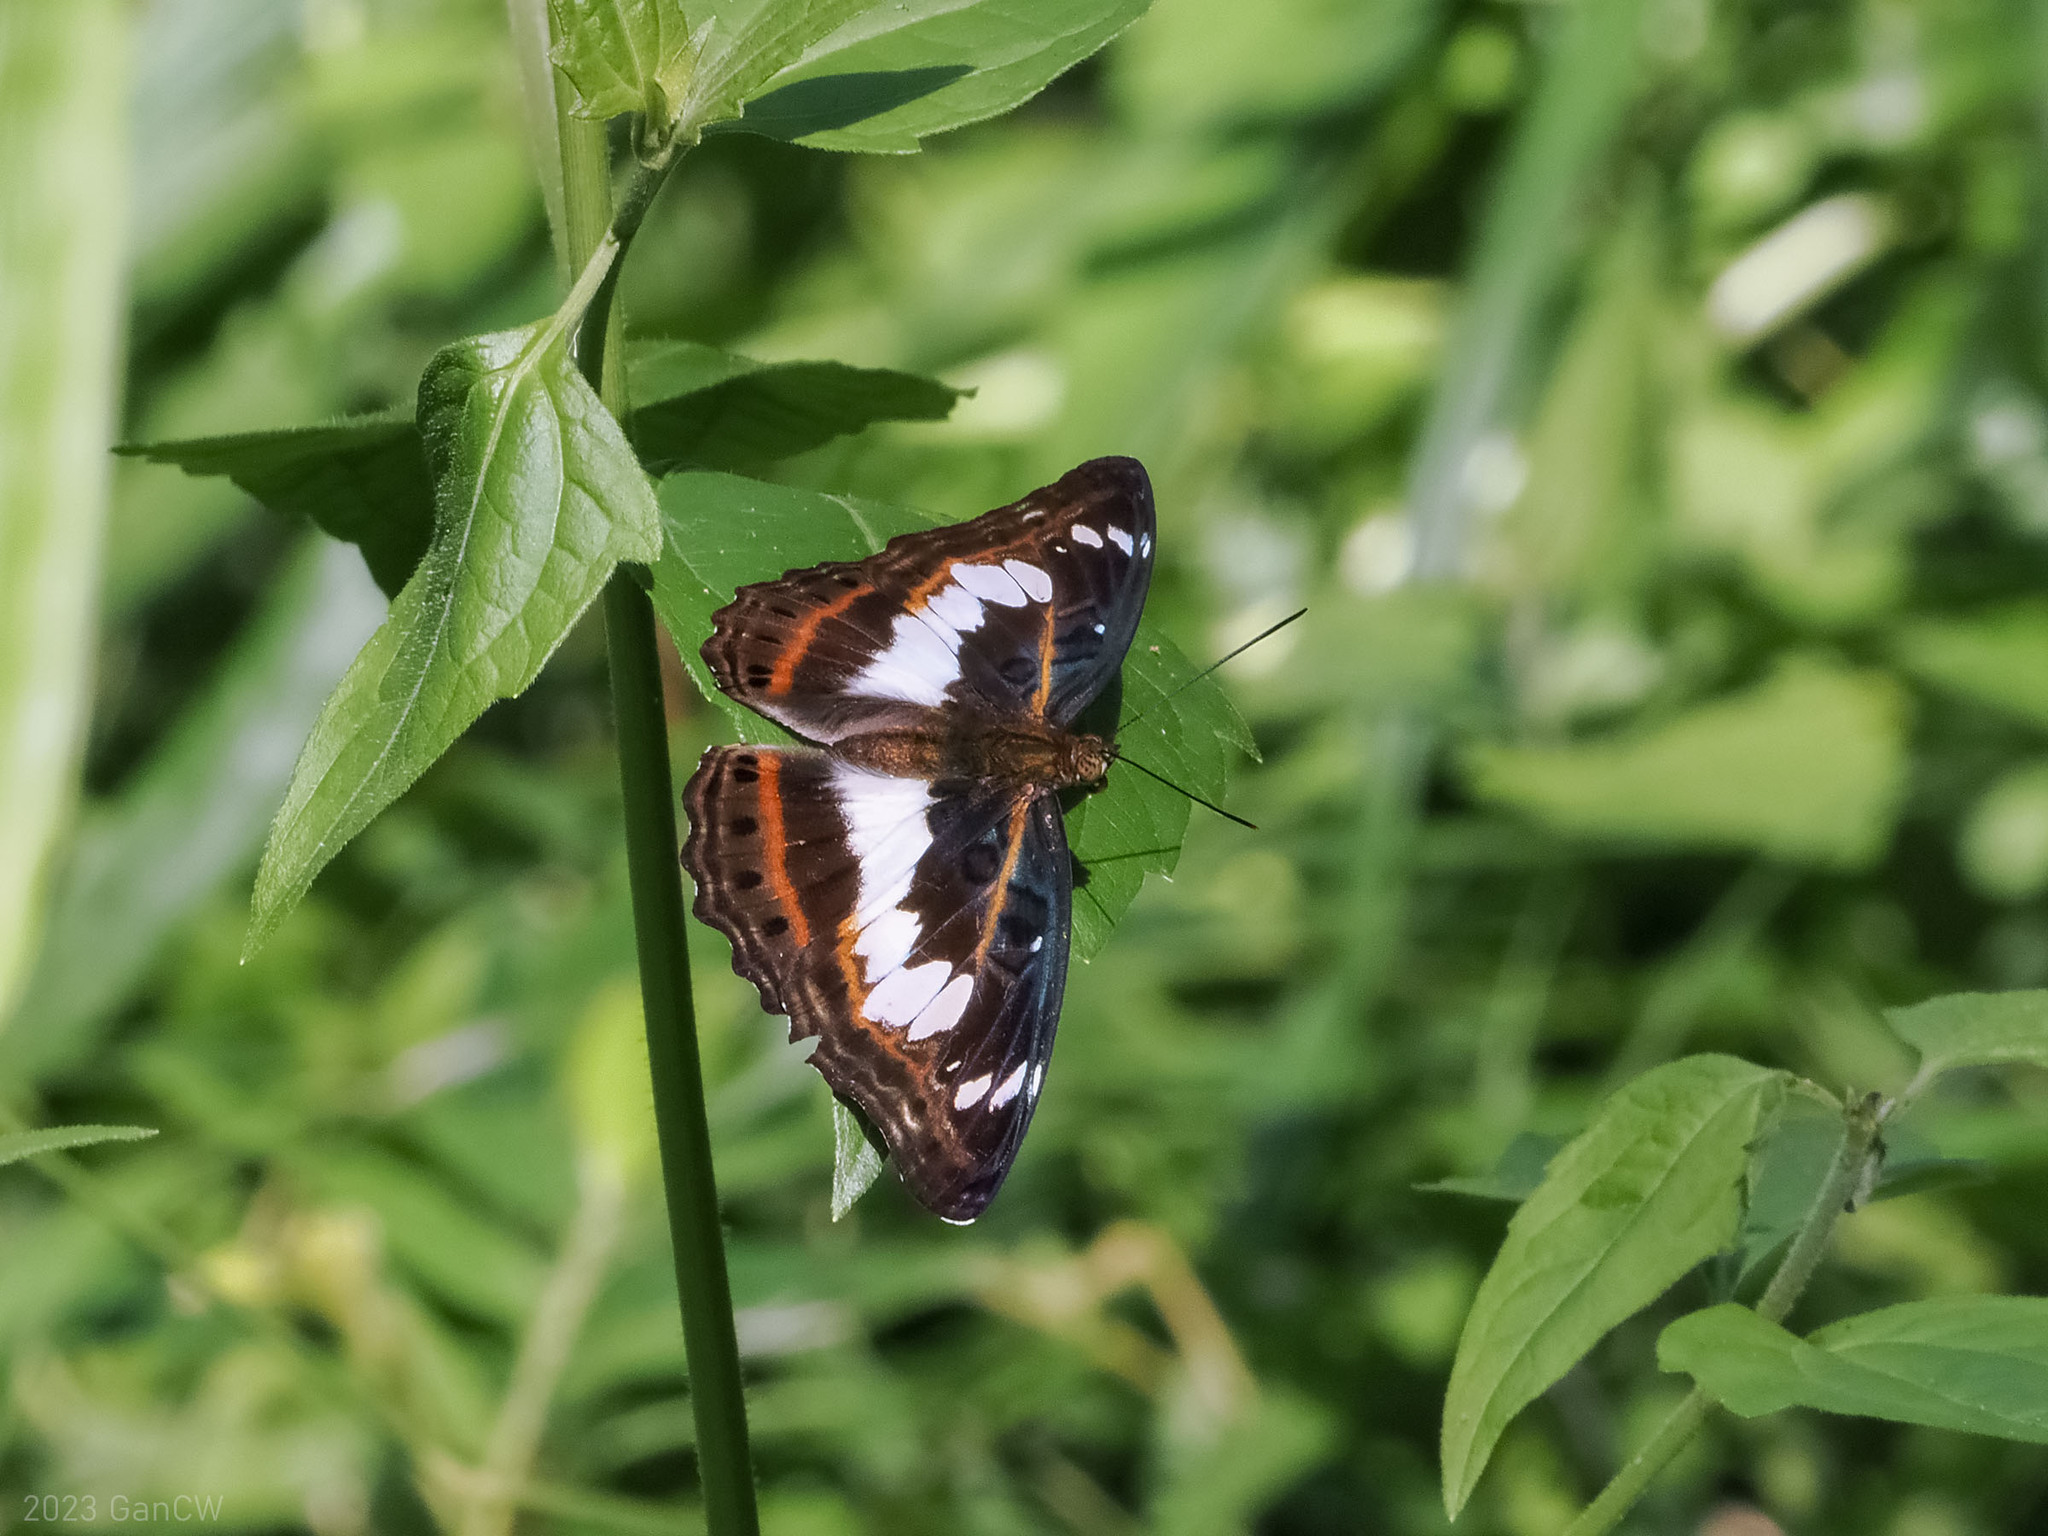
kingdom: Animalia
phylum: Arthropoda
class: Insecta
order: Lepidoptera
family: Nymphalidae
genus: Limenitis
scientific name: Limenitis Moduza urdaneta
